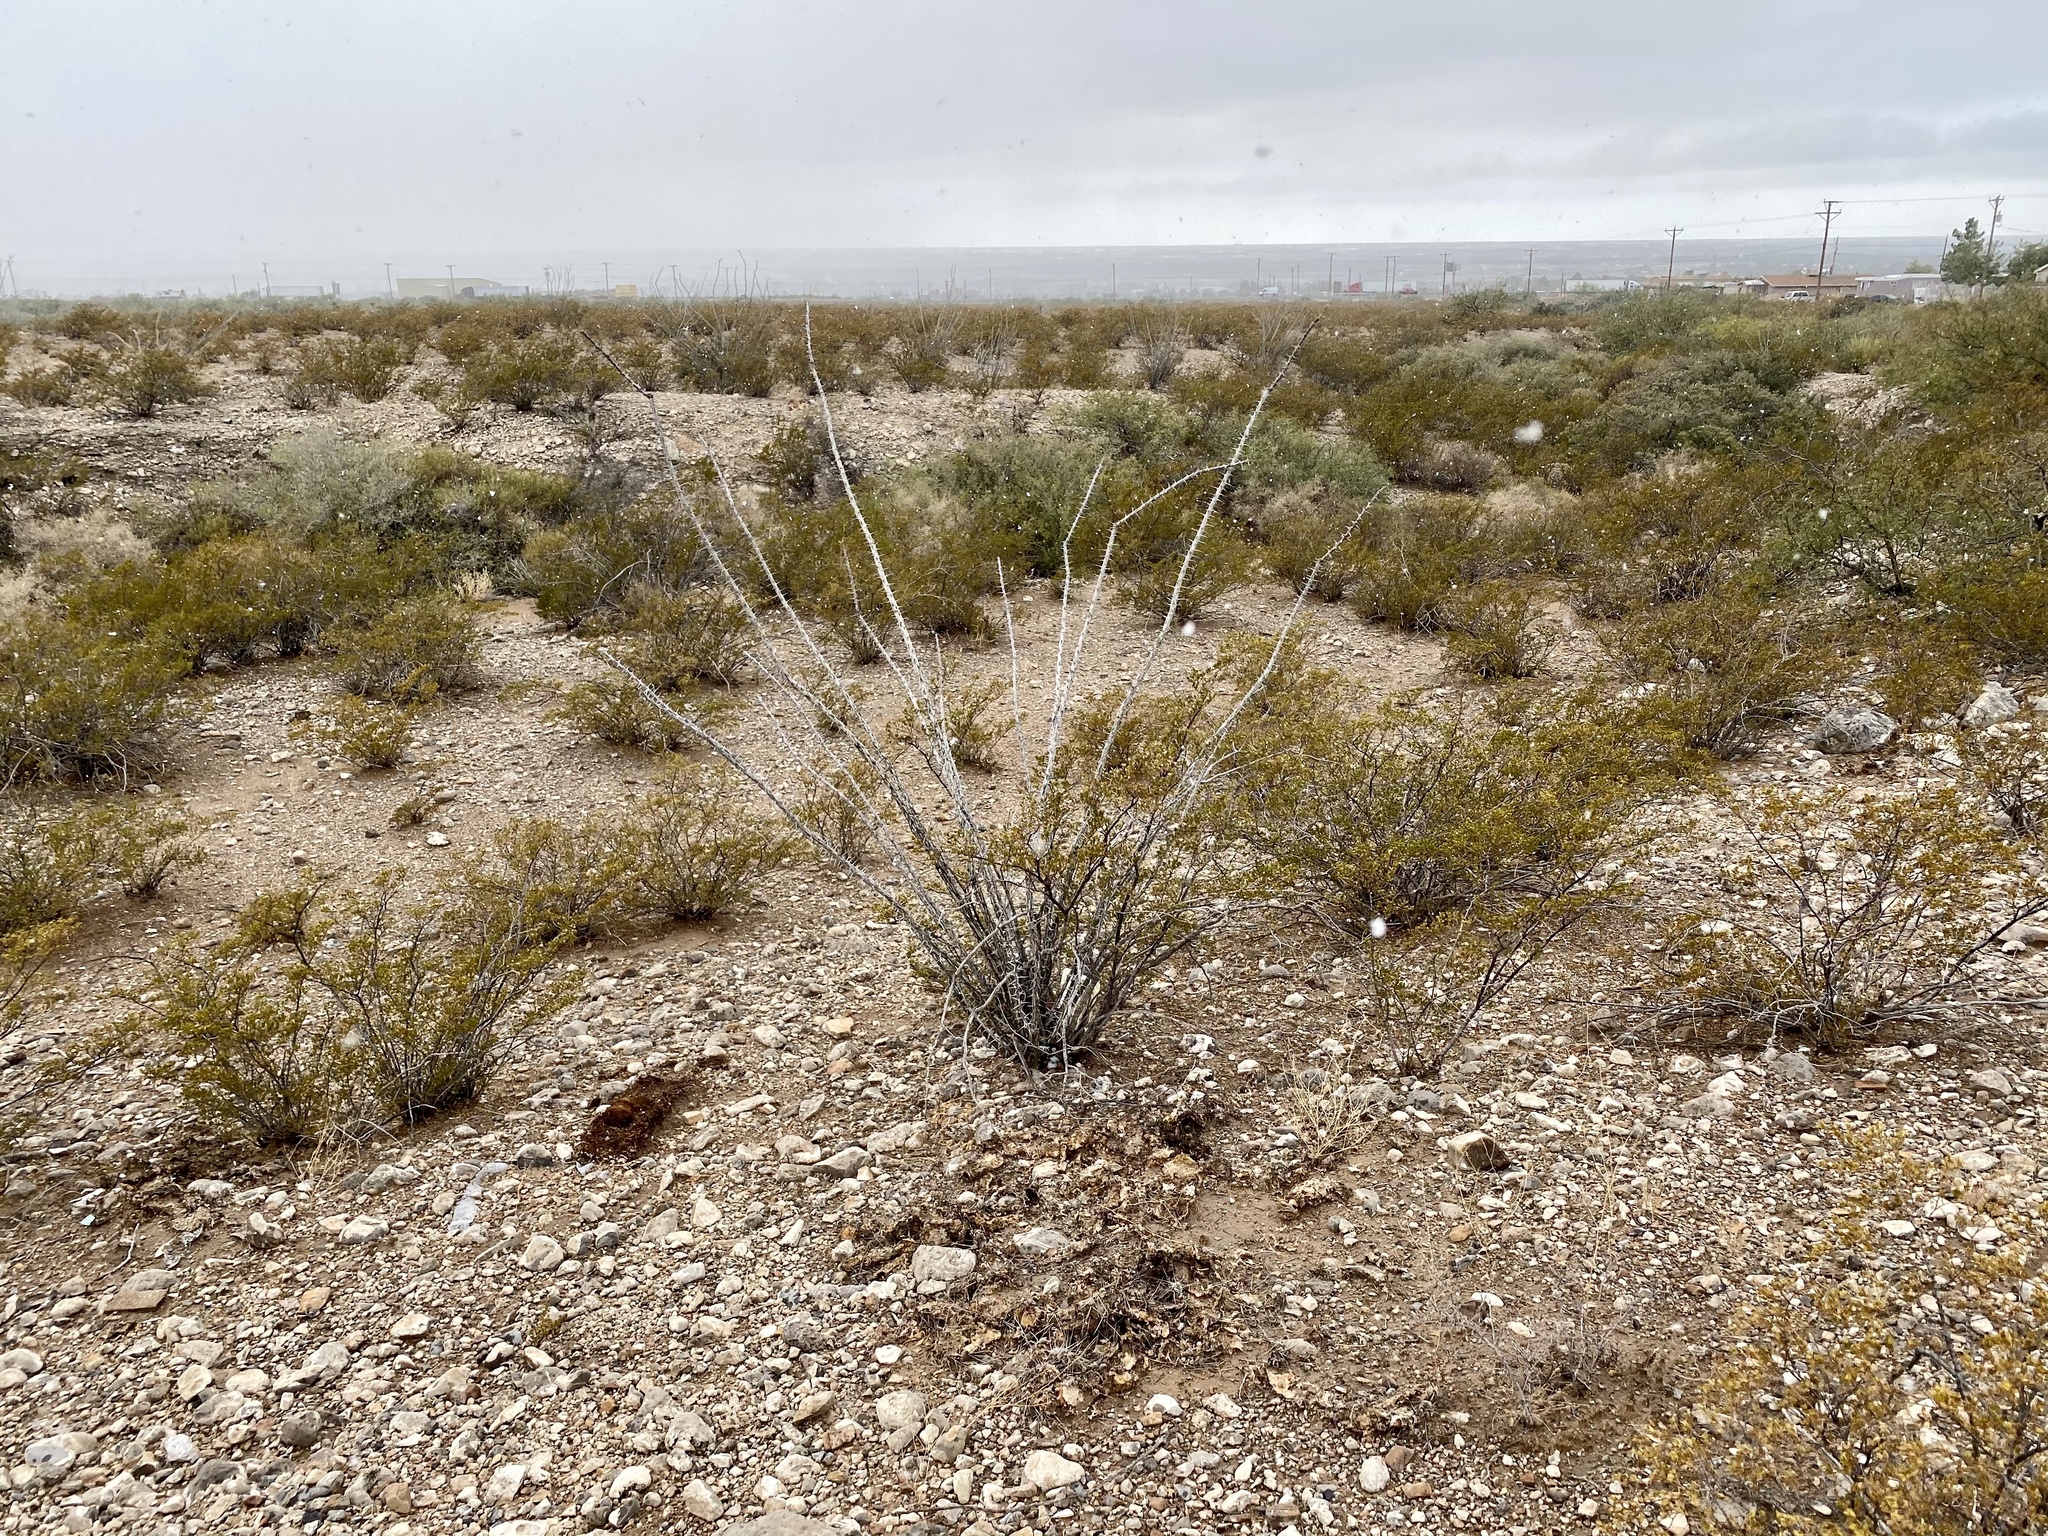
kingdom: Plantae
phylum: Tracheophyta
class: Magnoliopsida
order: Ericales
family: Fouquieriaceae
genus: Fouquieria
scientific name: Fouquieria splendens
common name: Vine-cactus
